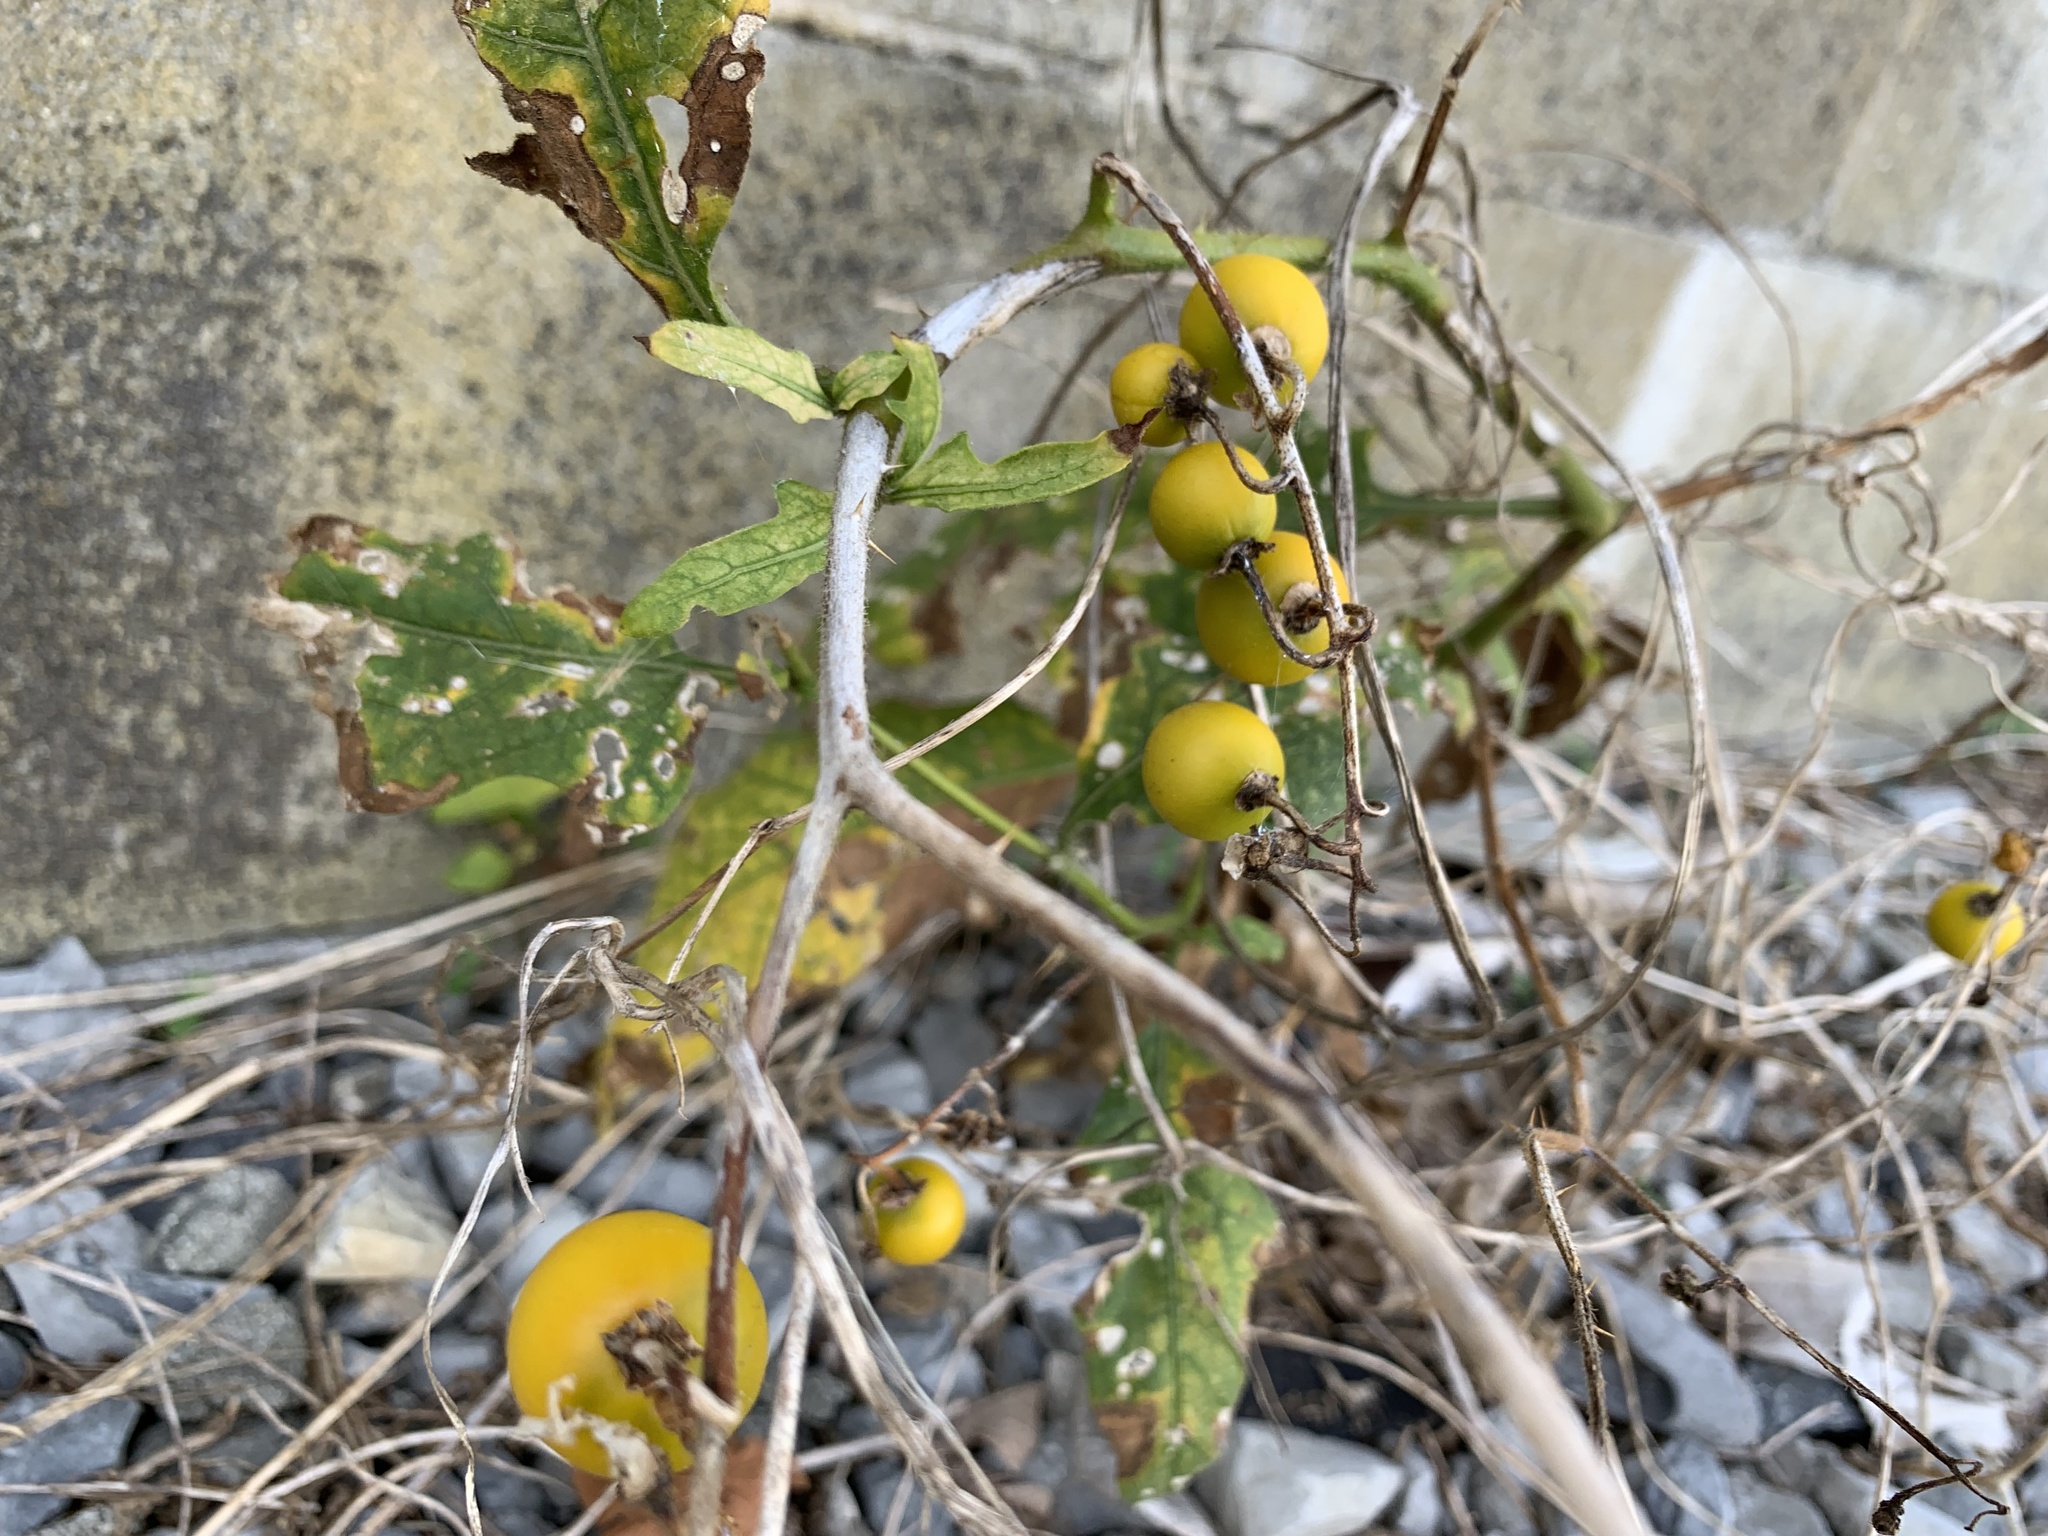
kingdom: Plantae
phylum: Tracheophyta
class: Magnoliopsida
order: Solanales
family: Solanaceae
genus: Solanum
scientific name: Solanum carolinense
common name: Horse-nettle
